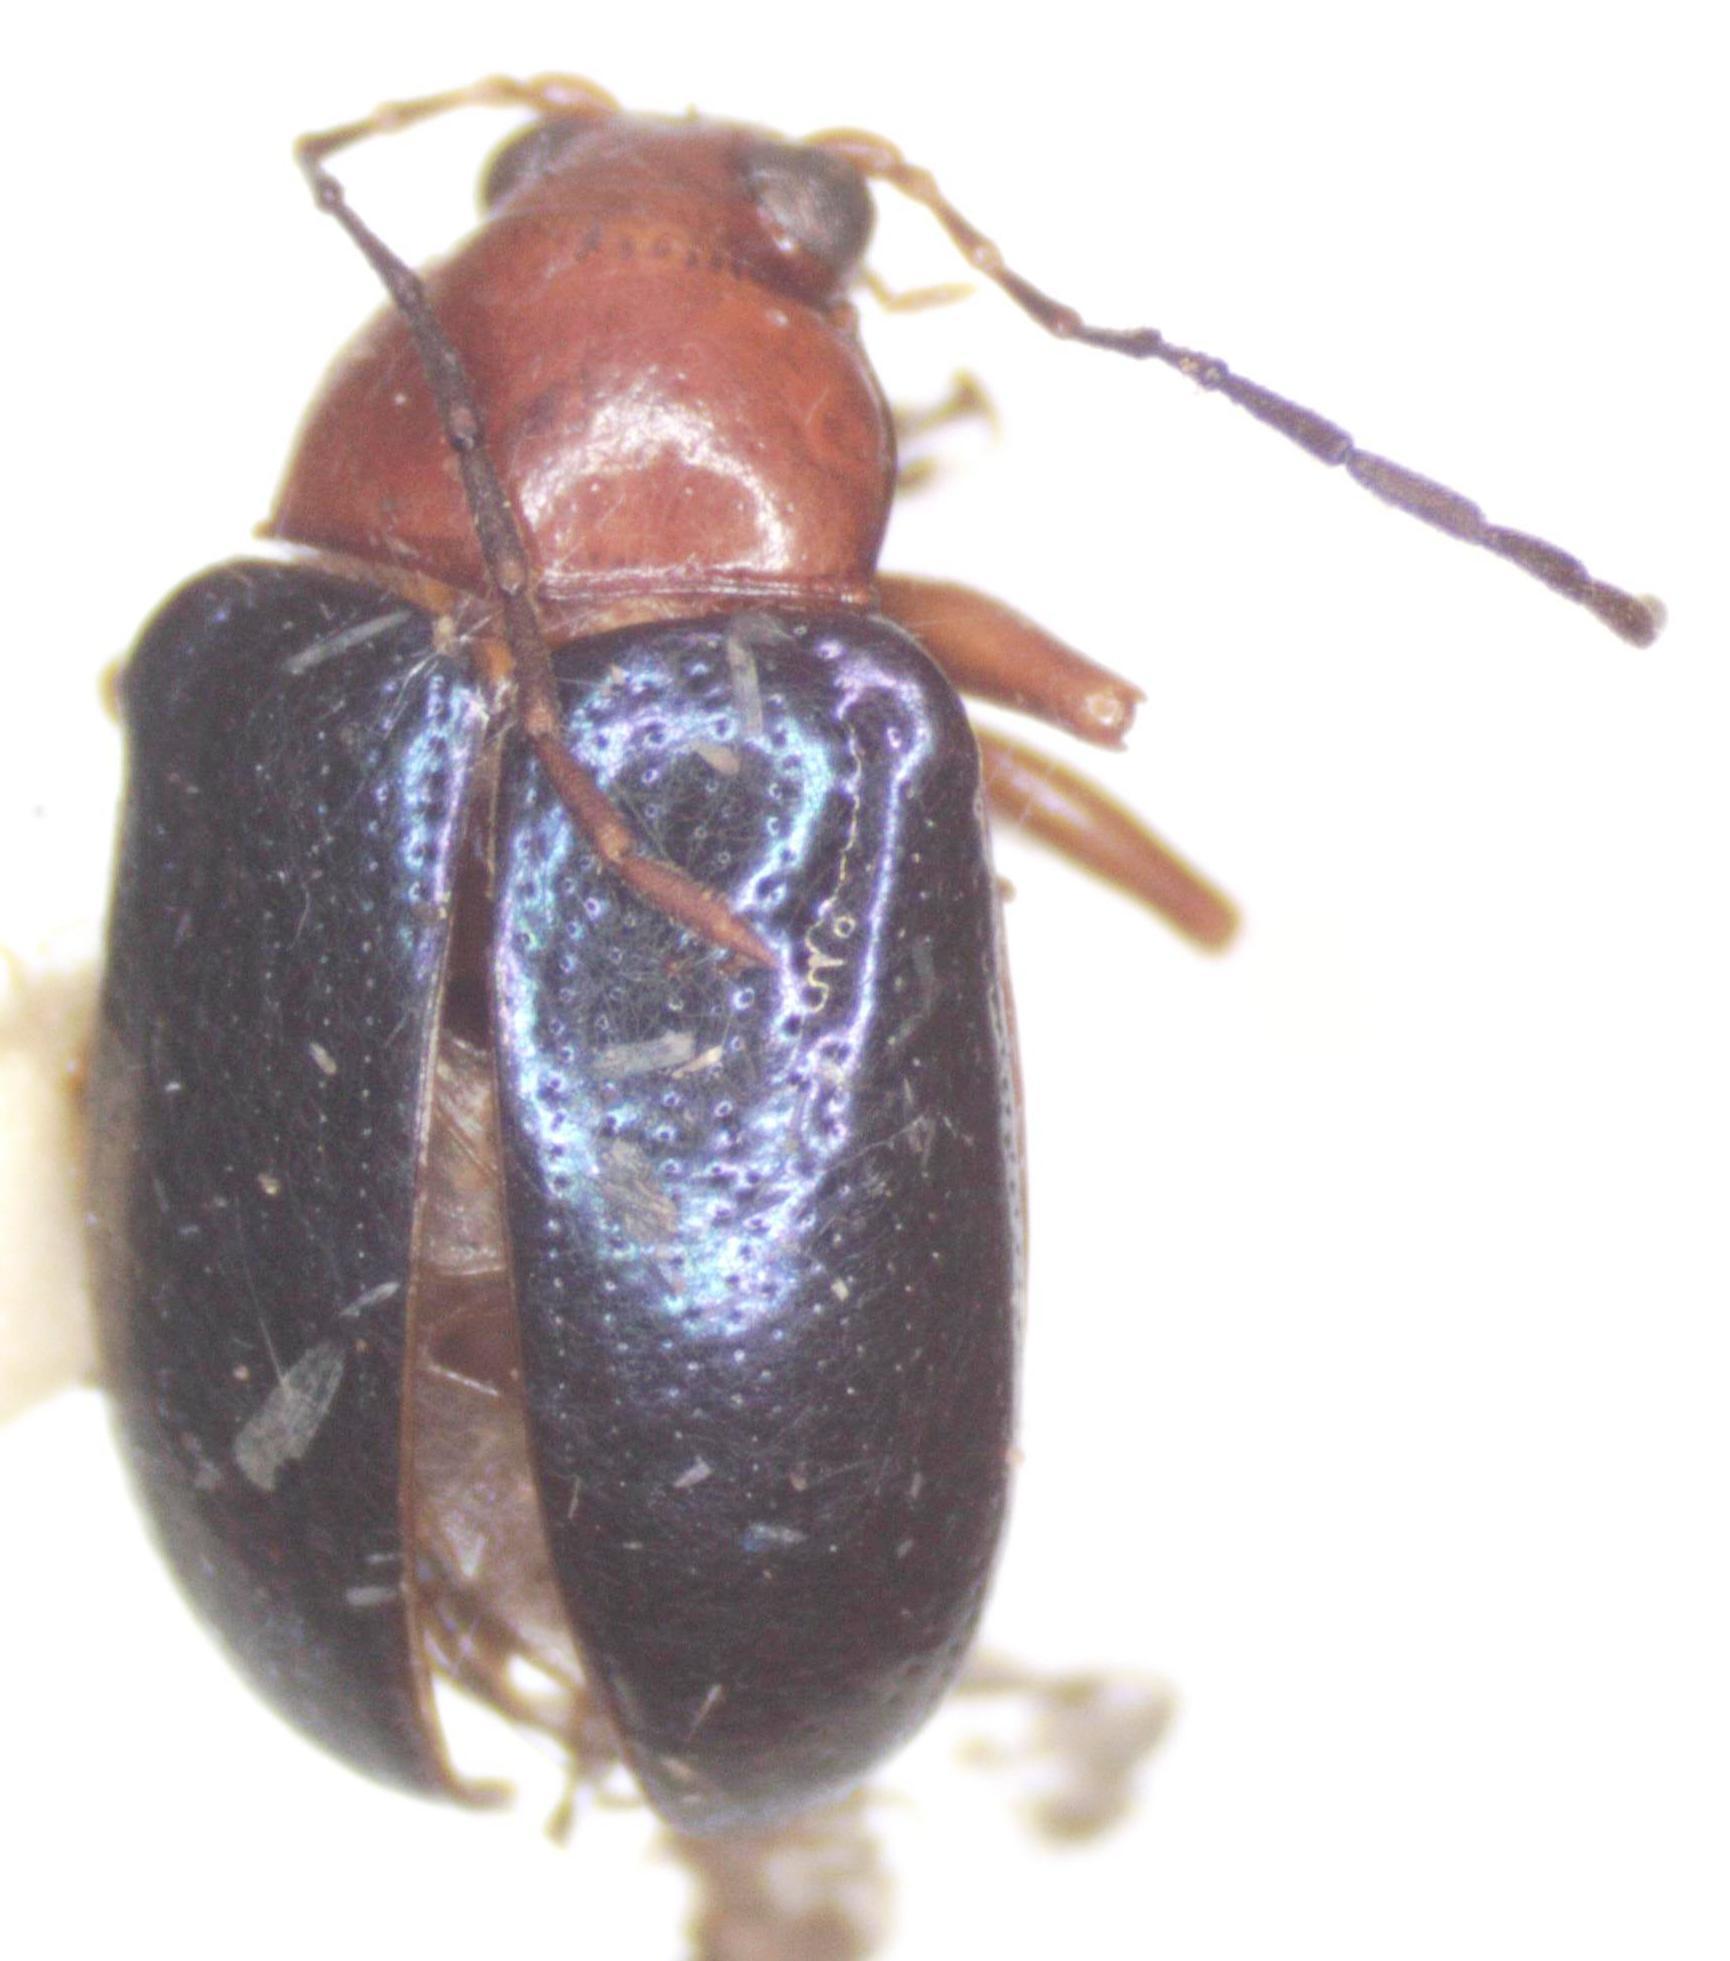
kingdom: Animalia
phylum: Arthropoda
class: Insecta
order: Coleoptera
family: Chrysomelidae
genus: Chalcophana
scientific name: Chalcophana
